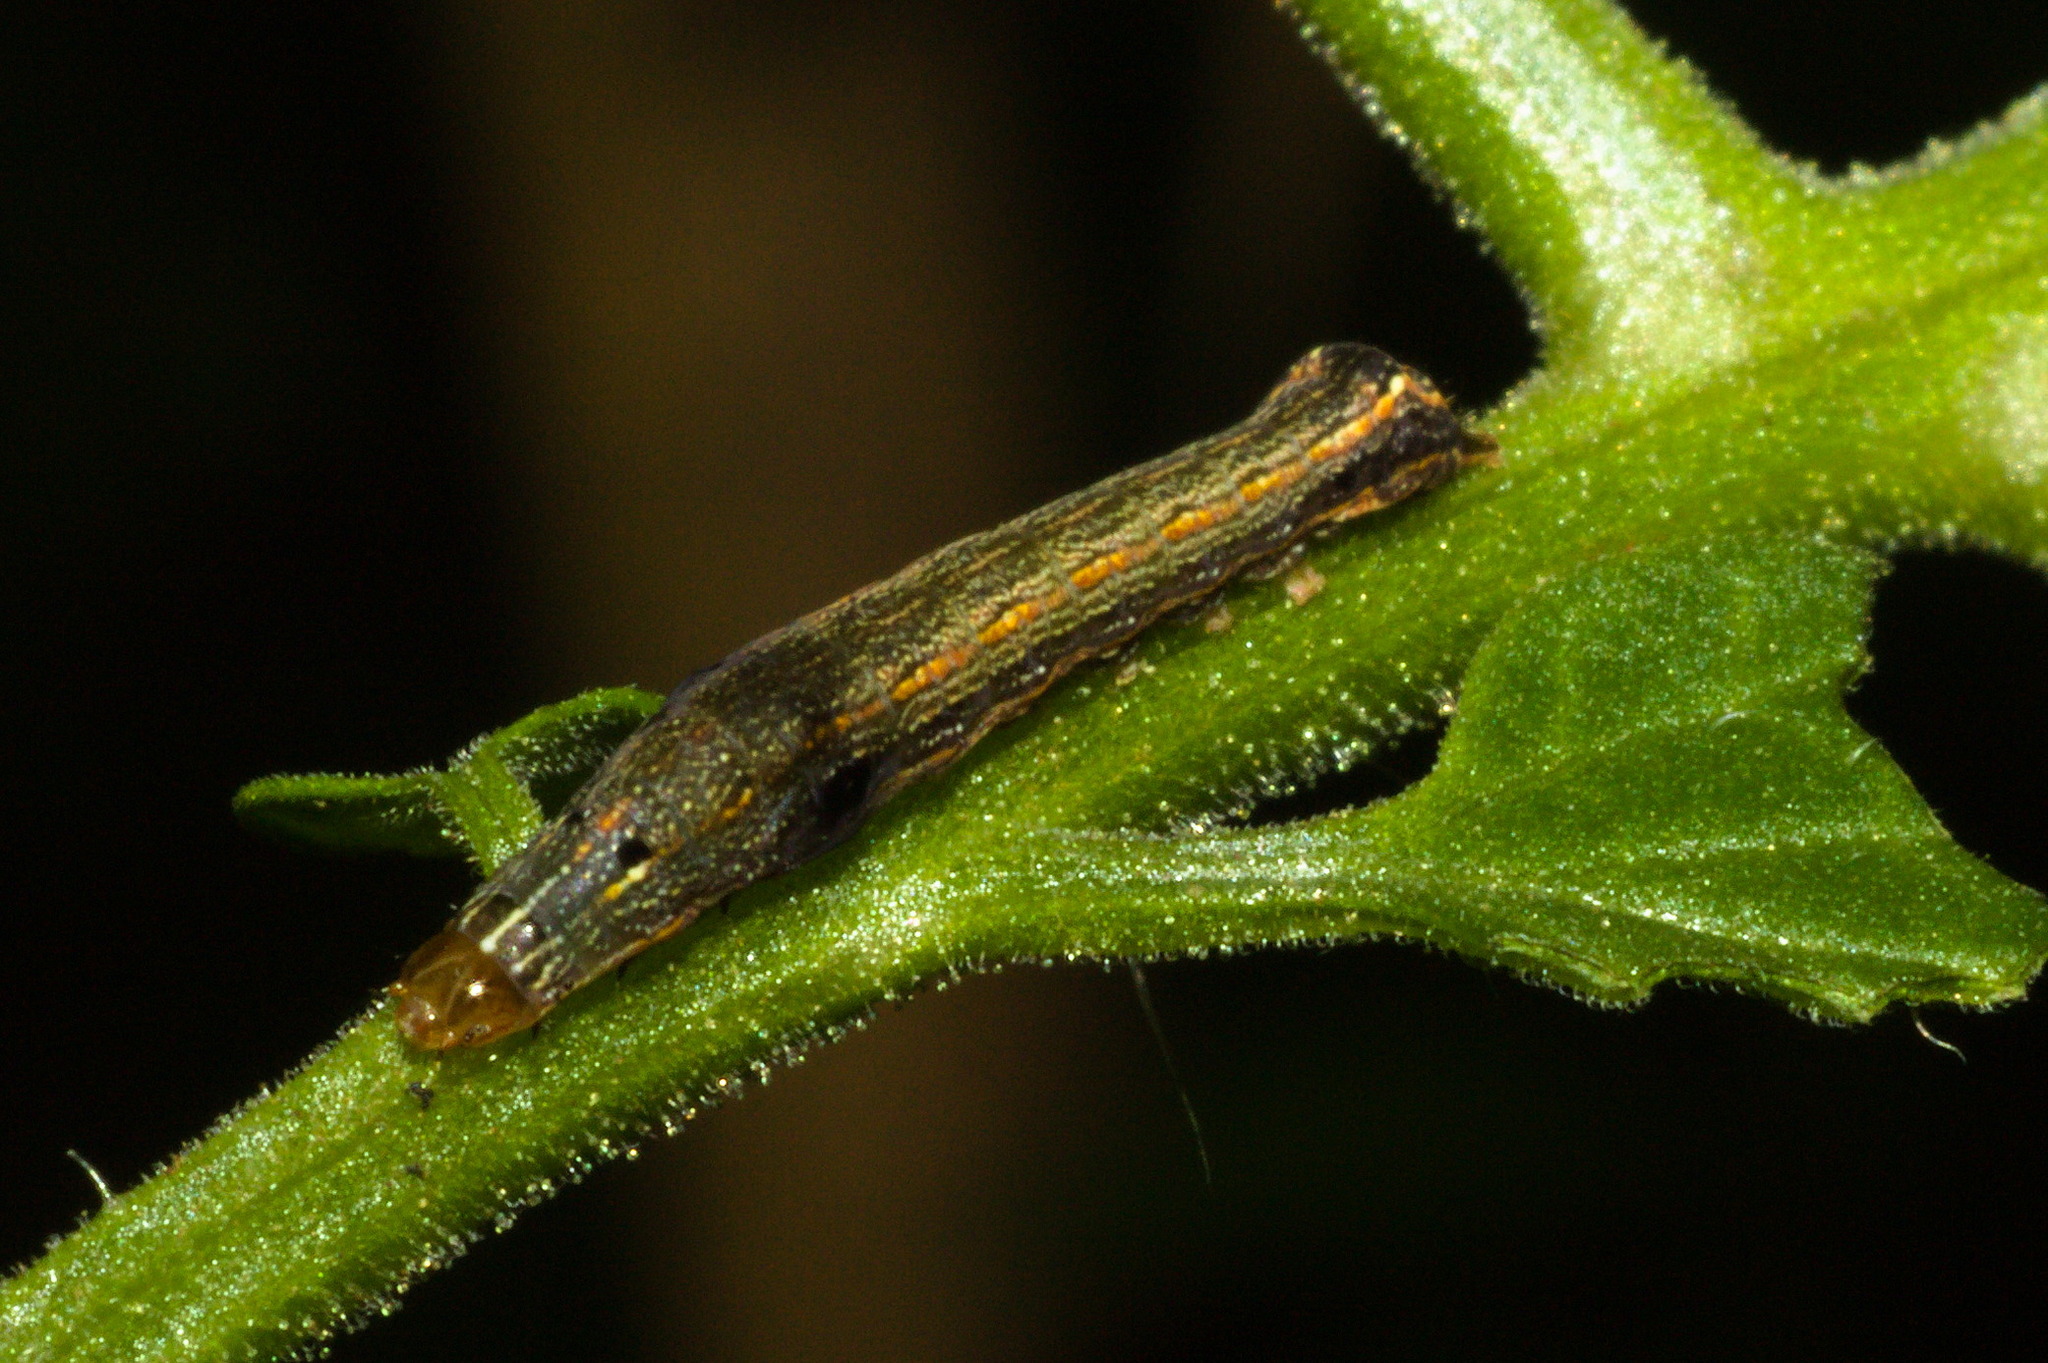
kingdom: Animalia
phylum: Arthropoda
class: Insecta
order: Lepidoptera
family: Noctuidae
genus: Spodoptera
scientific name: Spodoptera eridania
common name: Southern army worm
